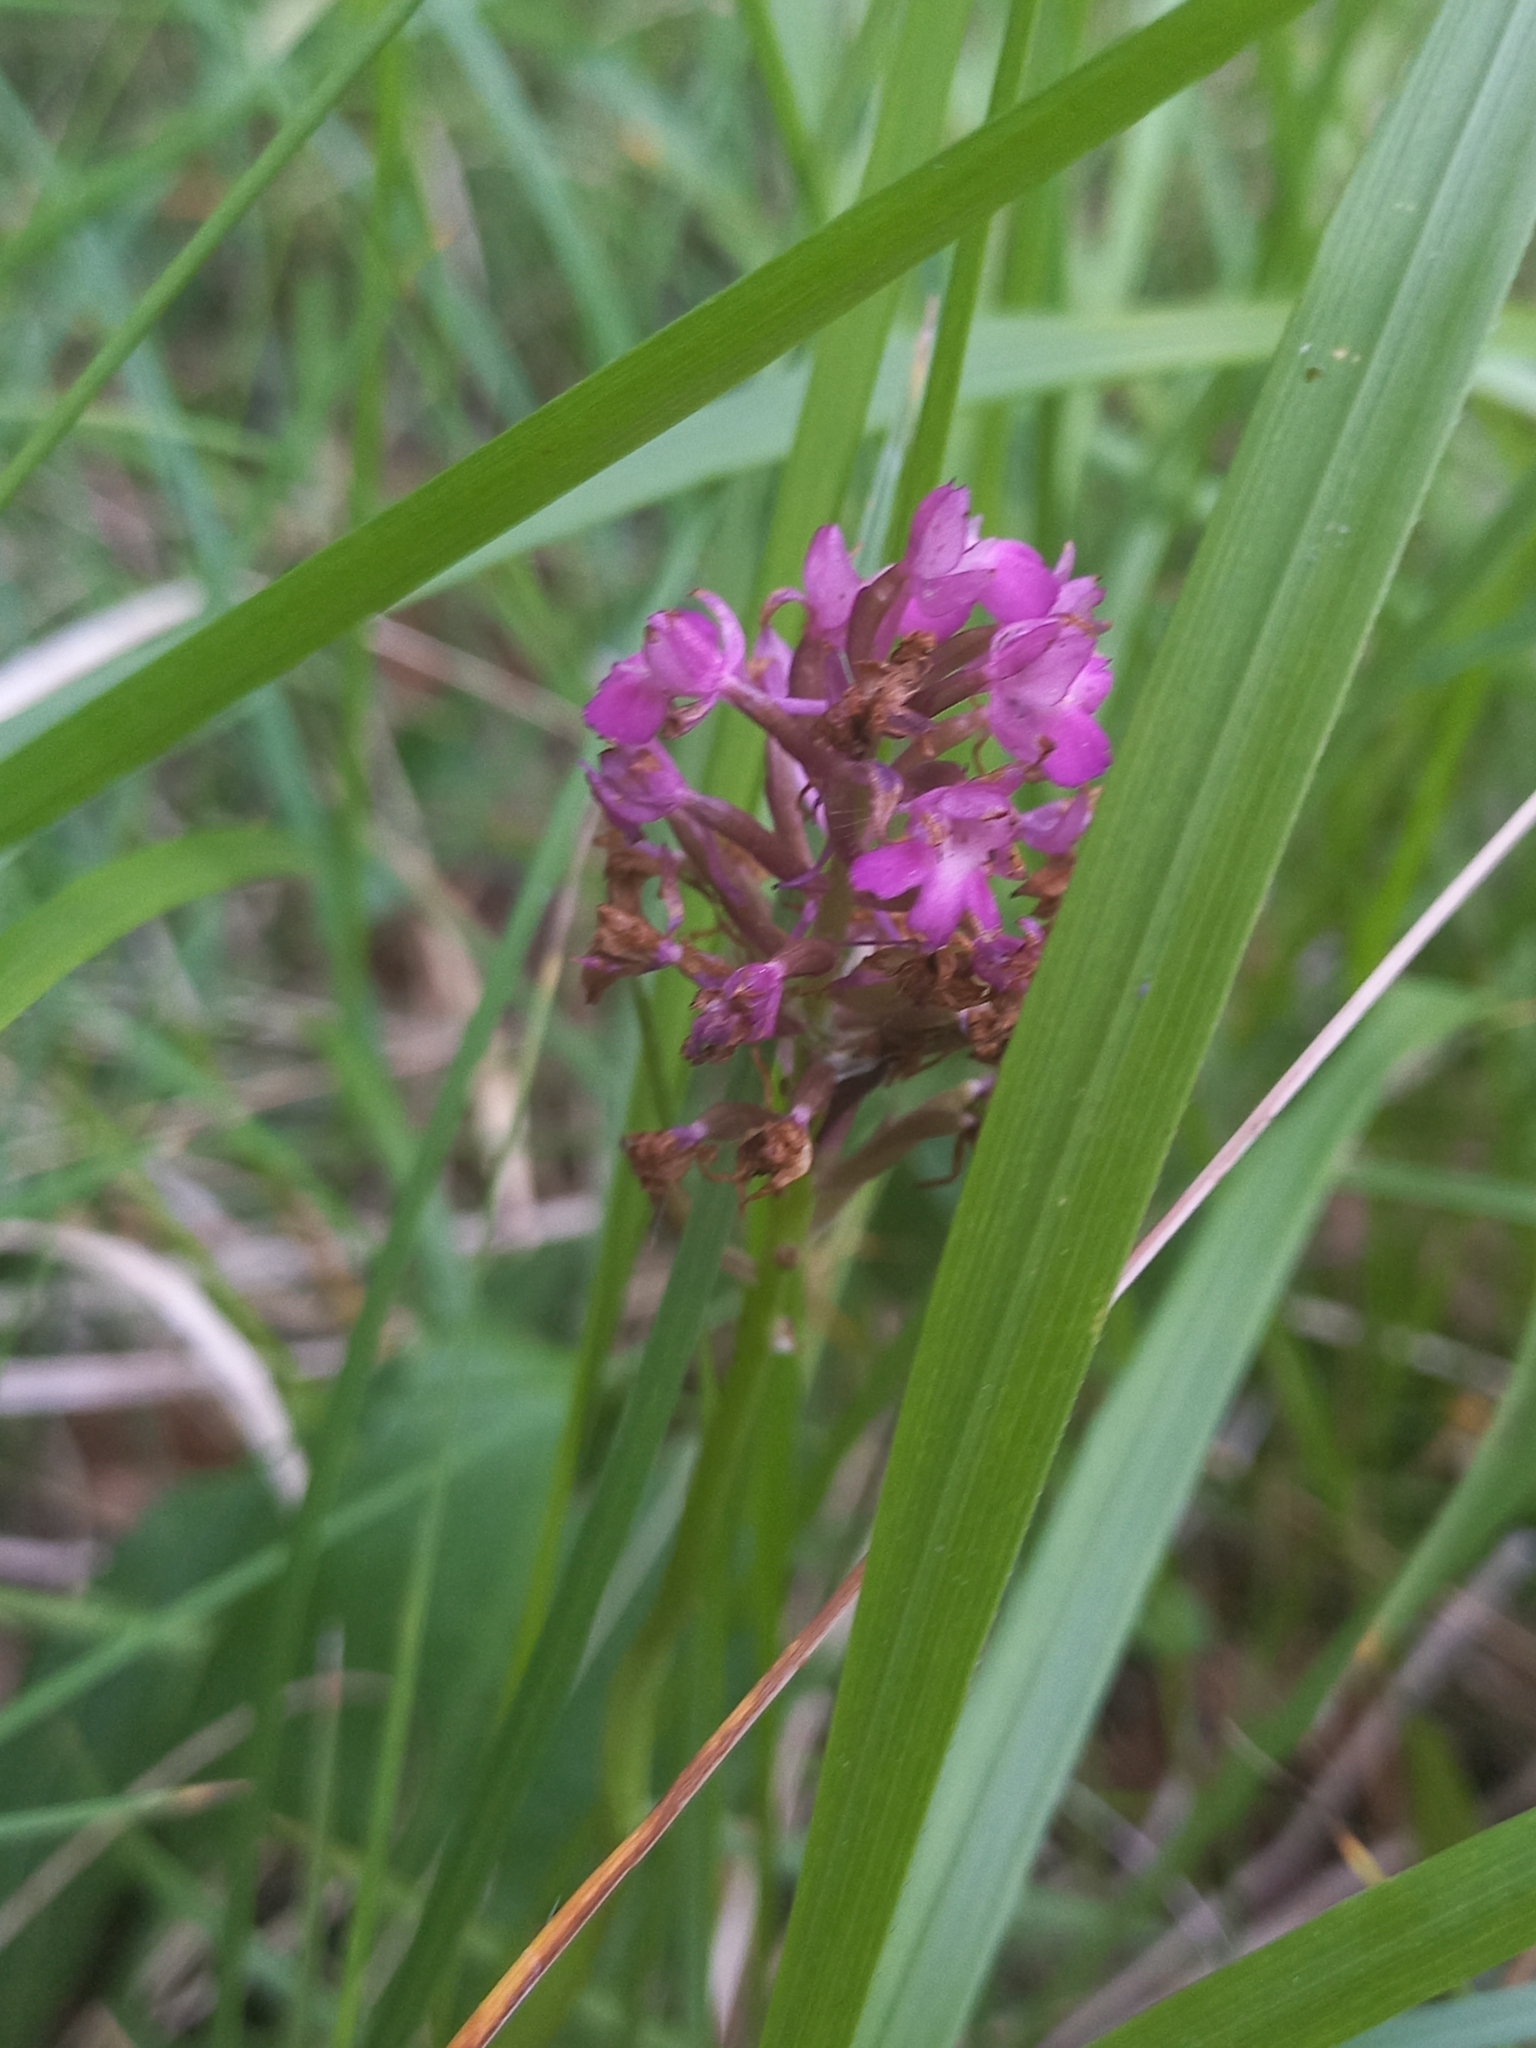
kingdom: Plantae
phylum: Tracheophyta
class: Liliopsida
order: Asparagales
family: Orchidaceae
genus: Anacamptis
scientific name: Anacamptis pyramidalis
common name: Pyramidal orchid
